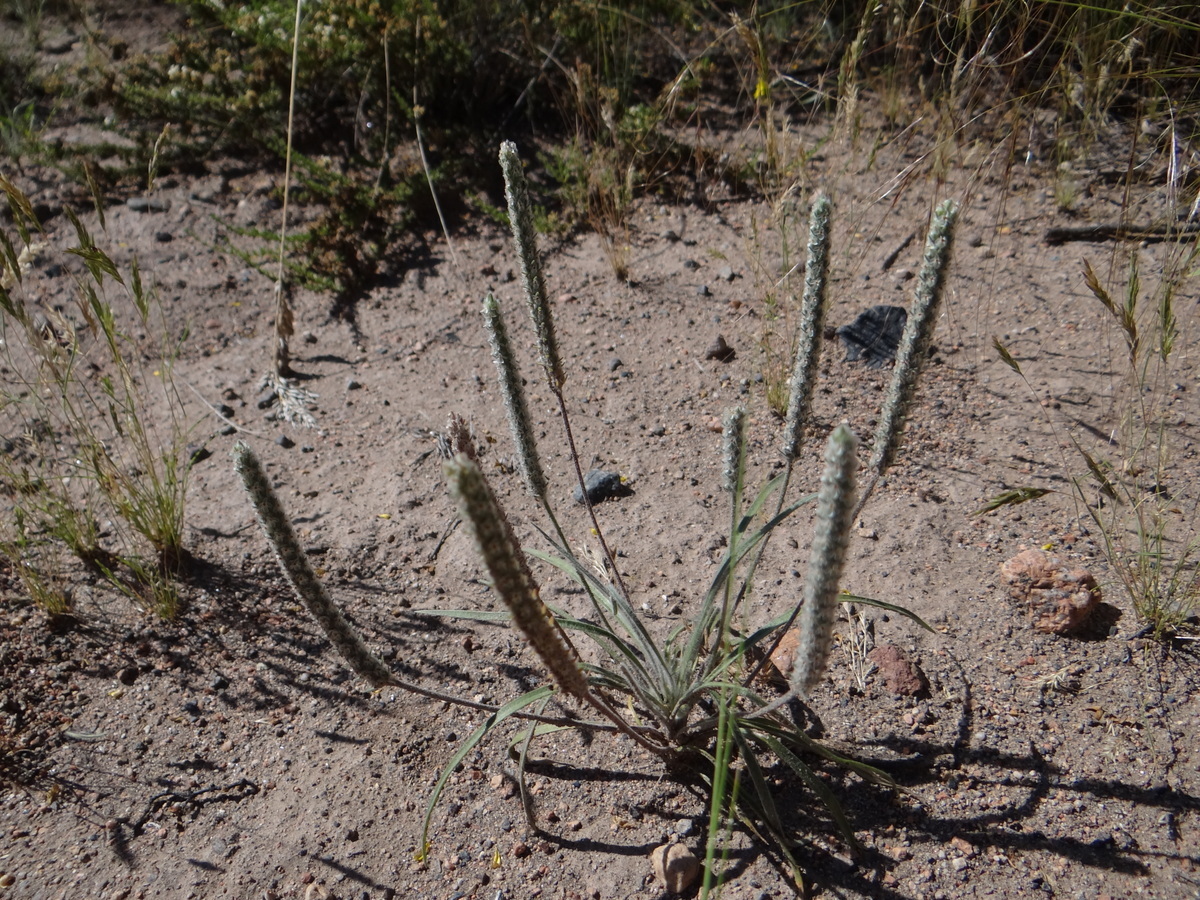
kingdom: Plantae
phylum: Tracheophyta
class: Magnoliopsida
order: Lamiales
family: Plantaginaceae
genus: Plantago
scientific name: Plantago patagonica
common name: Patagonia indian-wheat
